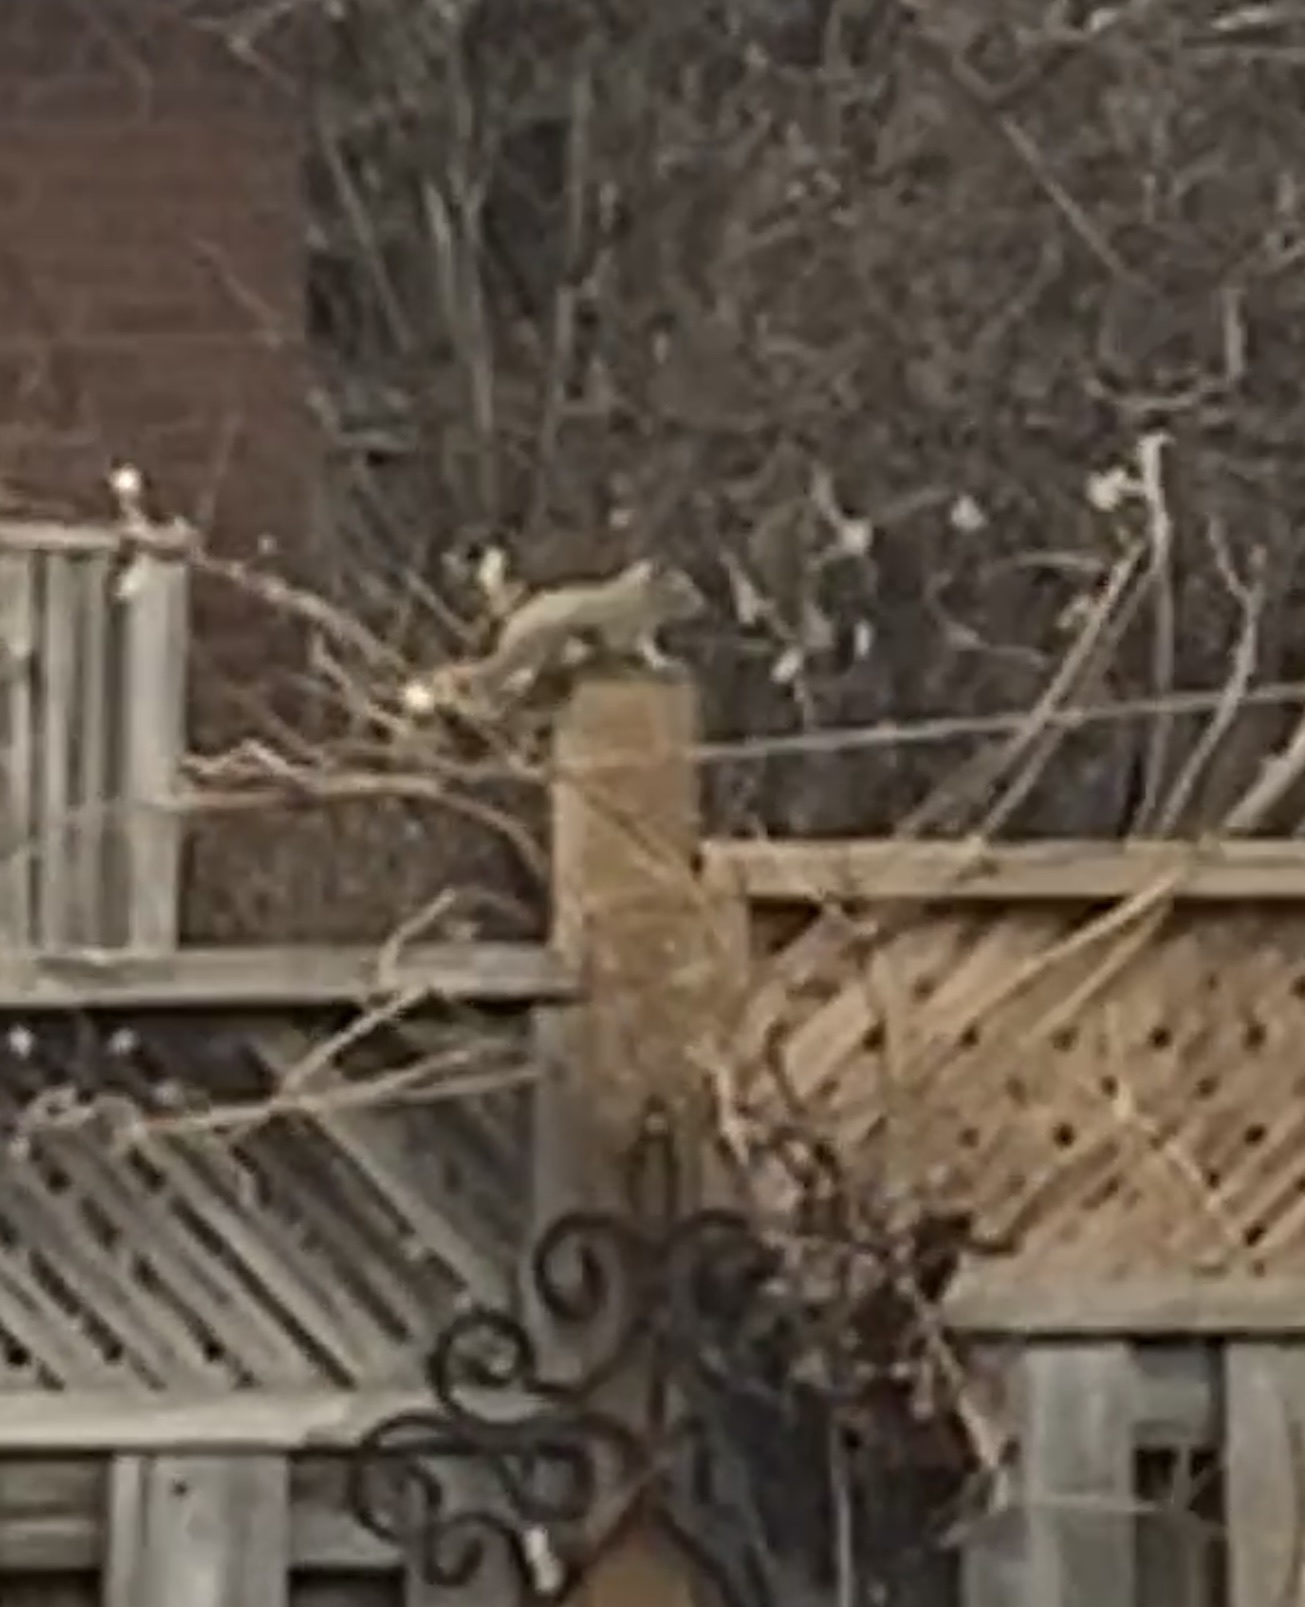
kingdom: Animalia
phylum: Chordata
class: Mammalia
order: Rodentia
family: Sciuridae
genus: Tamiasciurus
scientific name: Tamiasciurus hudsonicus
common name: Red squirrel
